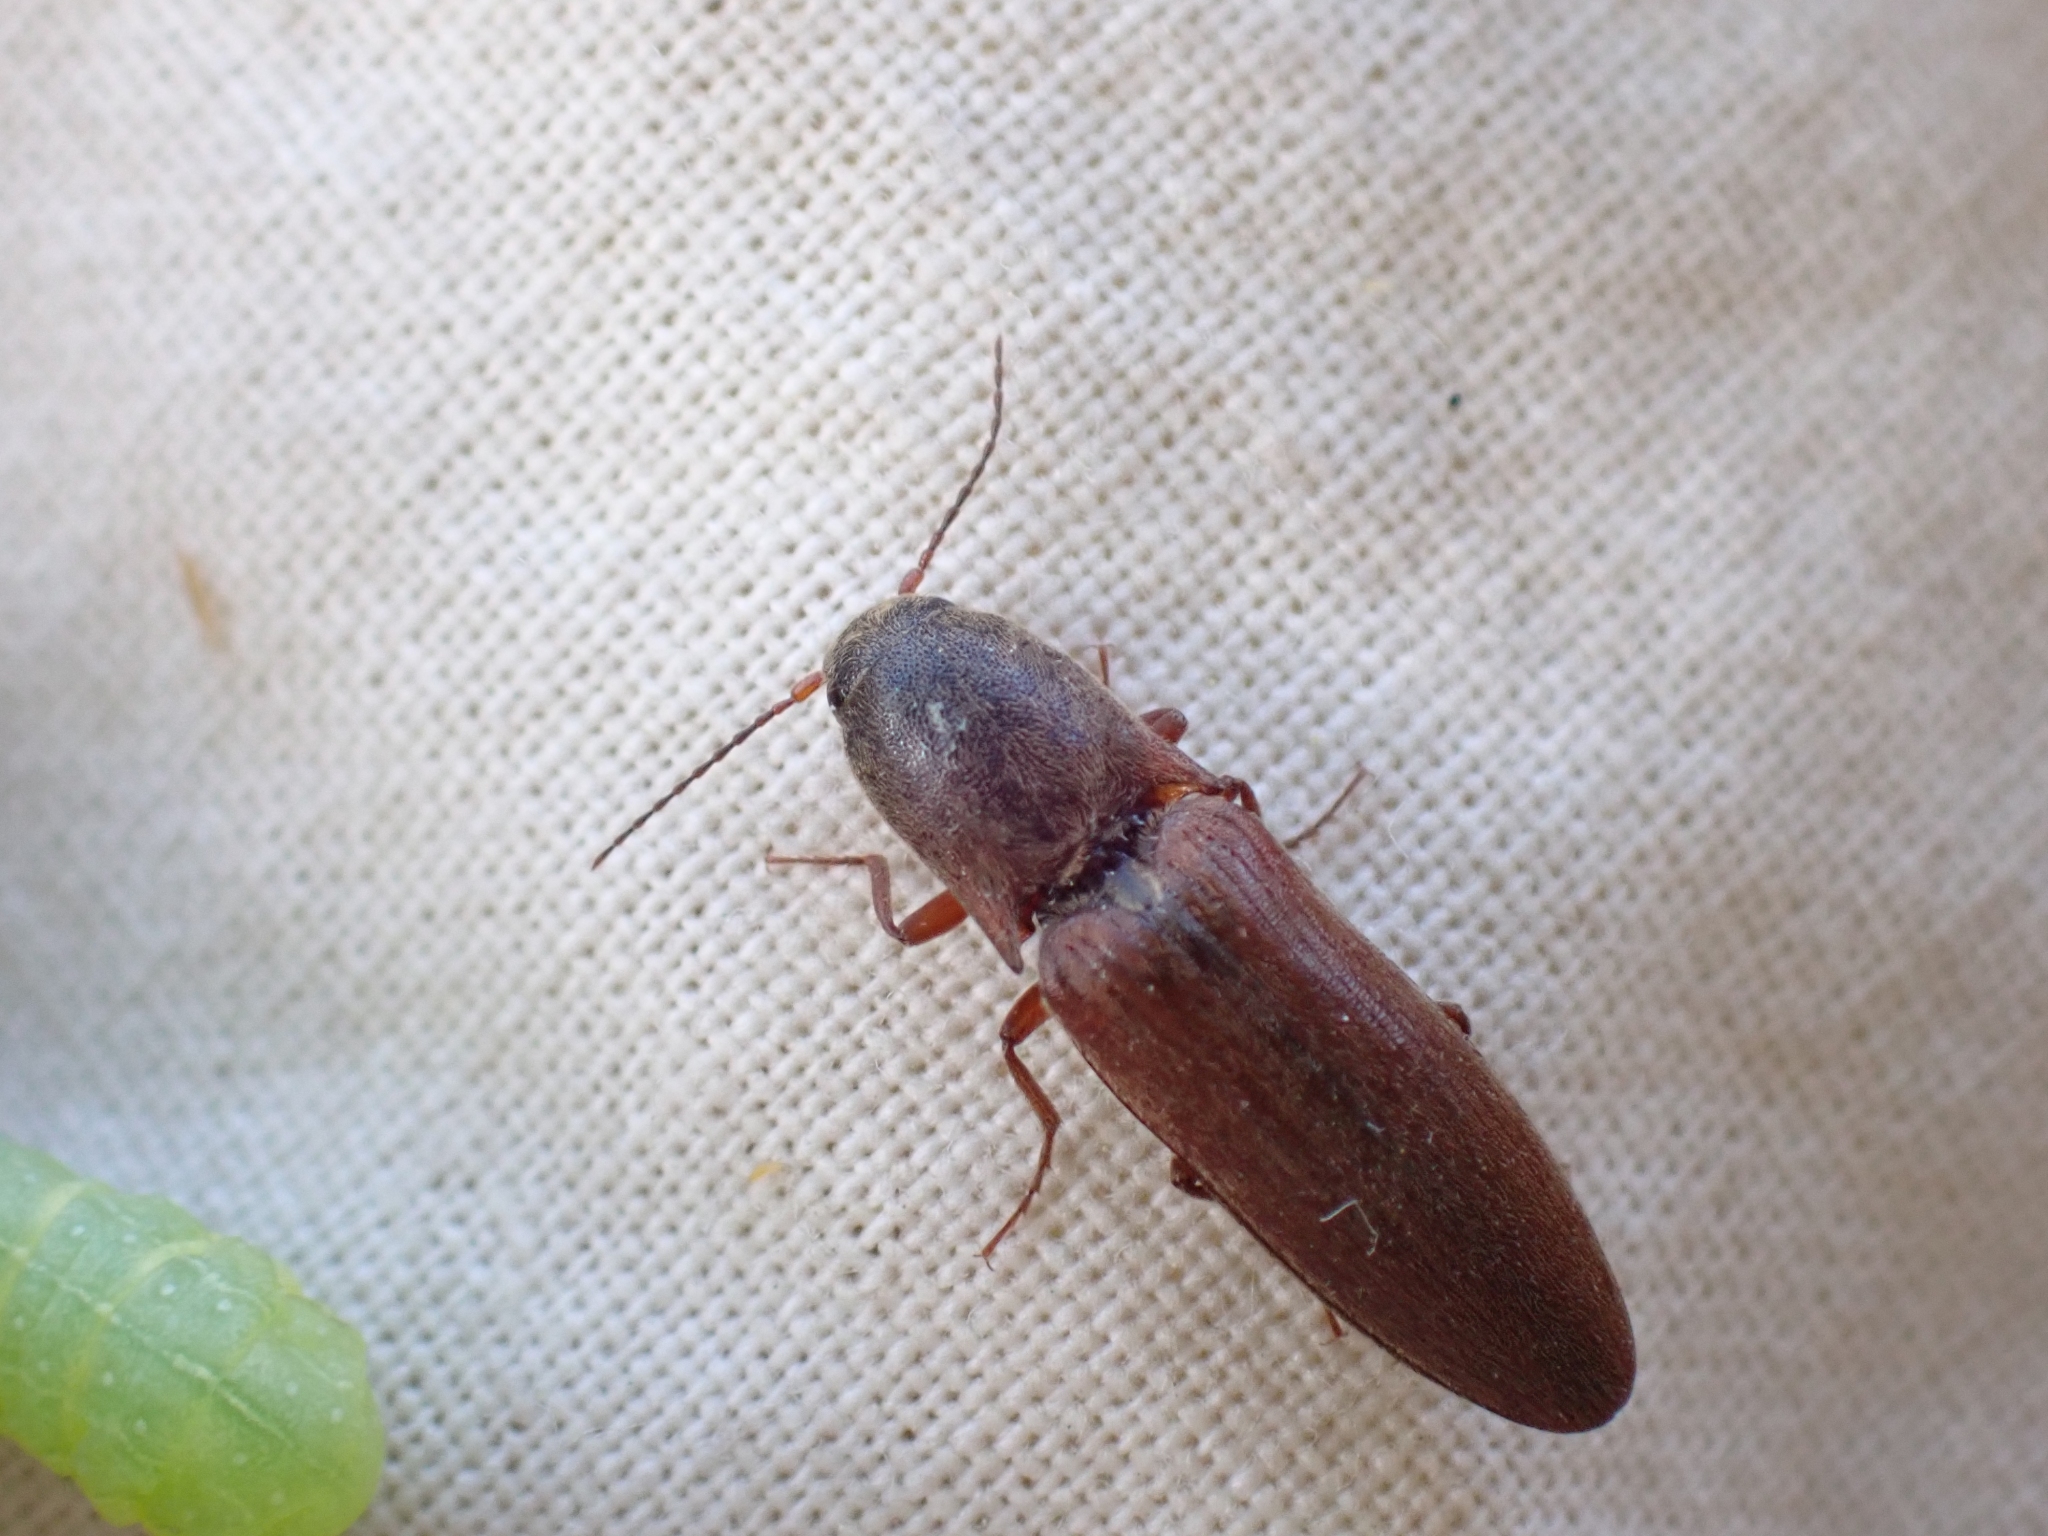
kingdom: Animalia
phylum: Arthropoda
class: Insecta
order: Coleoptera
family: Elateridae
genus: Agriotes
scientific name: Agriotes ferrugineipennis
